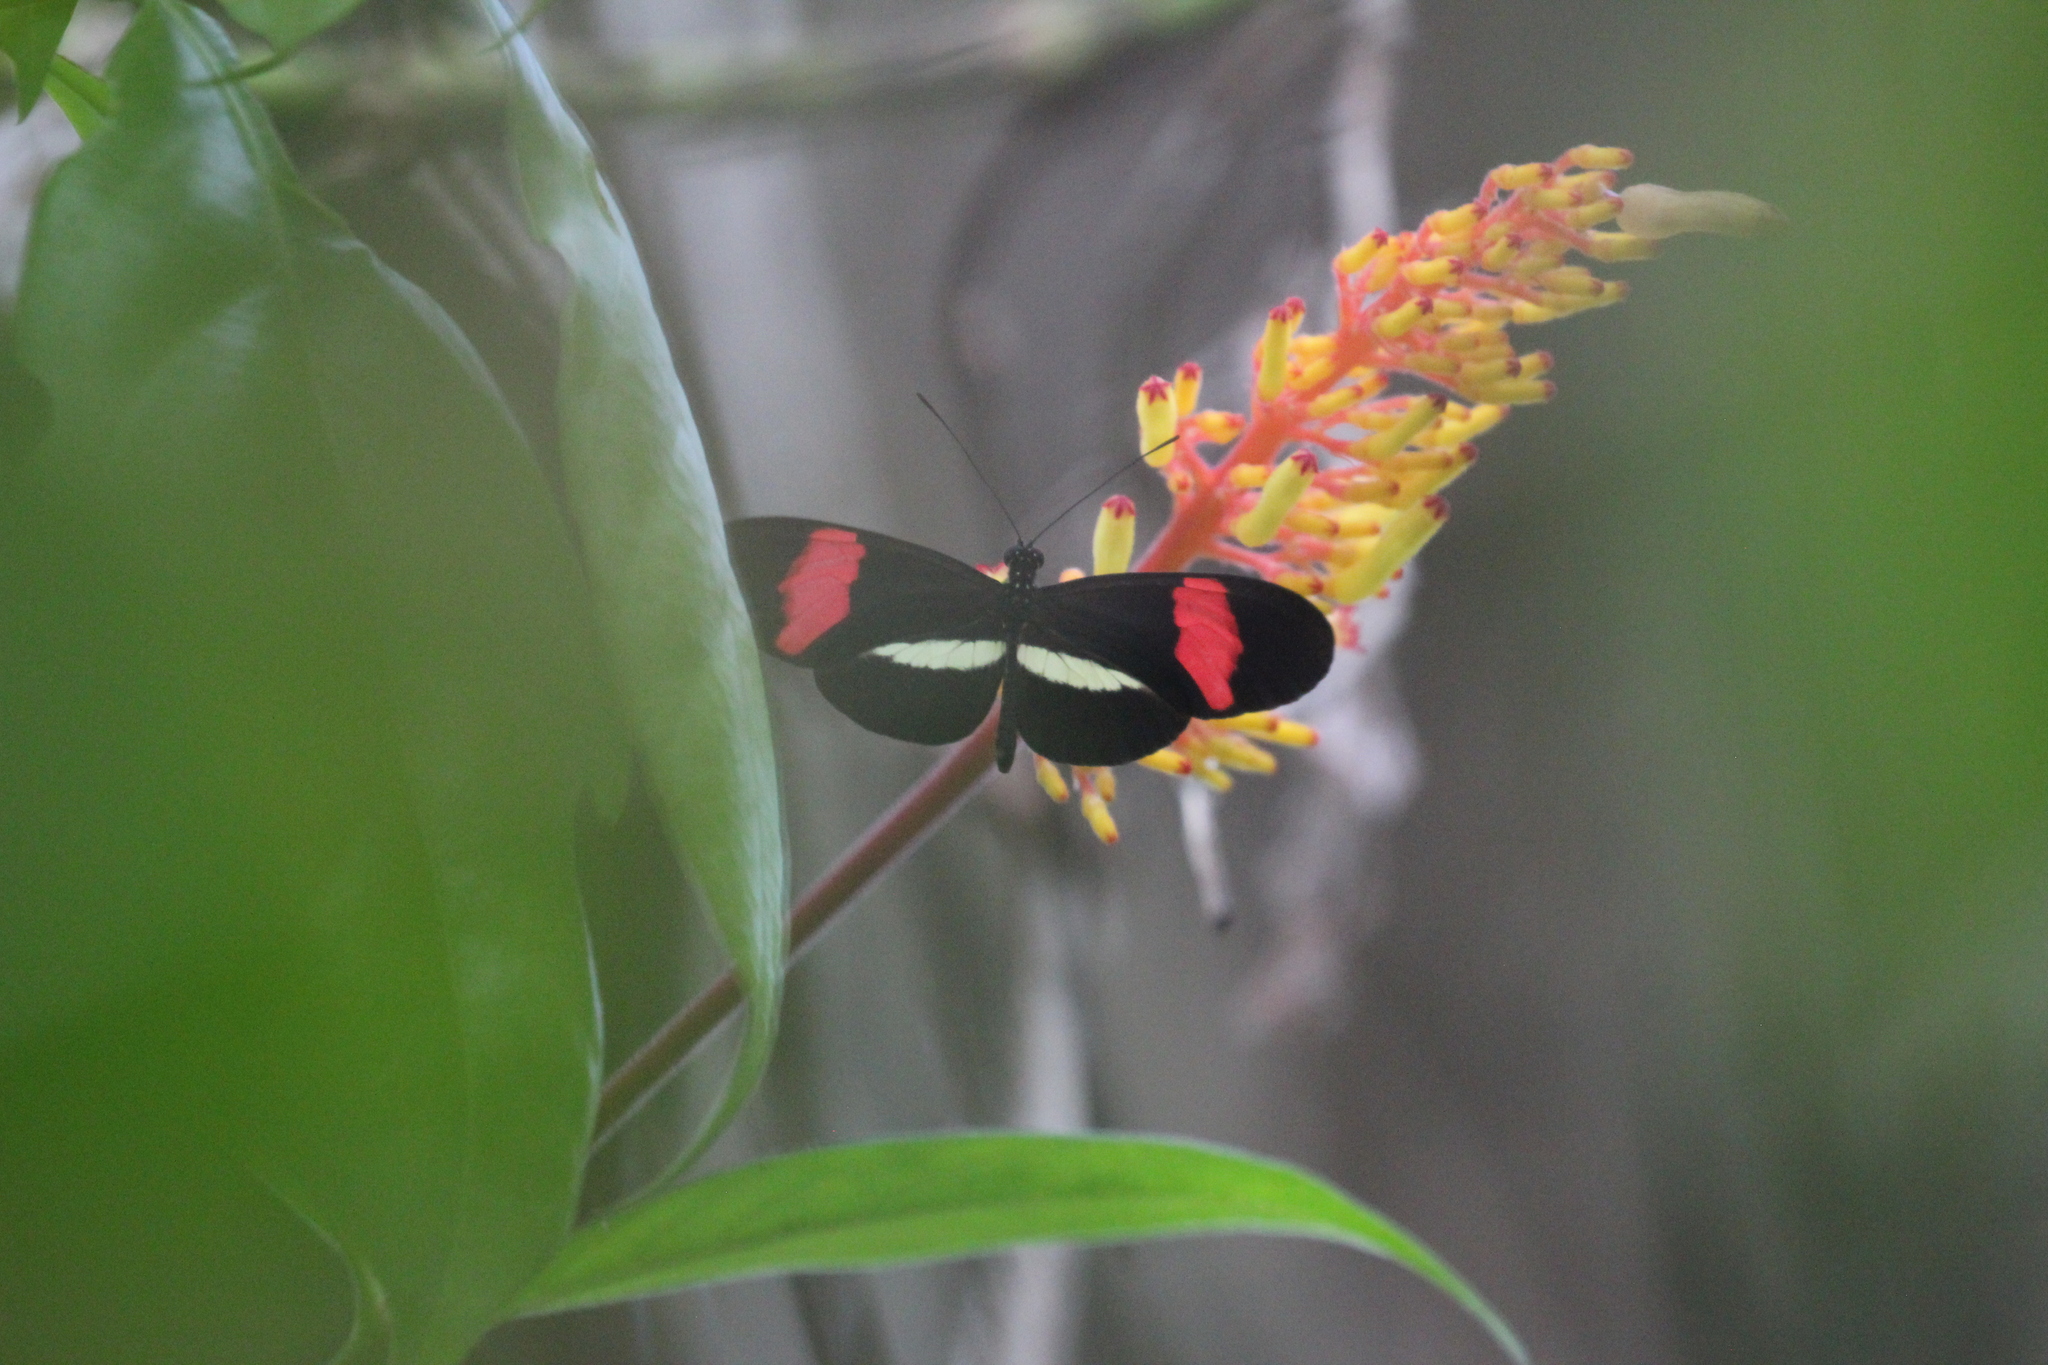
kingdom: Animalia
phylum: Arthropoda
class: Insecta
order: Lepidoptera
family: Nymphalidae
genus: Tirumala
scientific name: Tirumala petiverana
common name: Blue monarch
